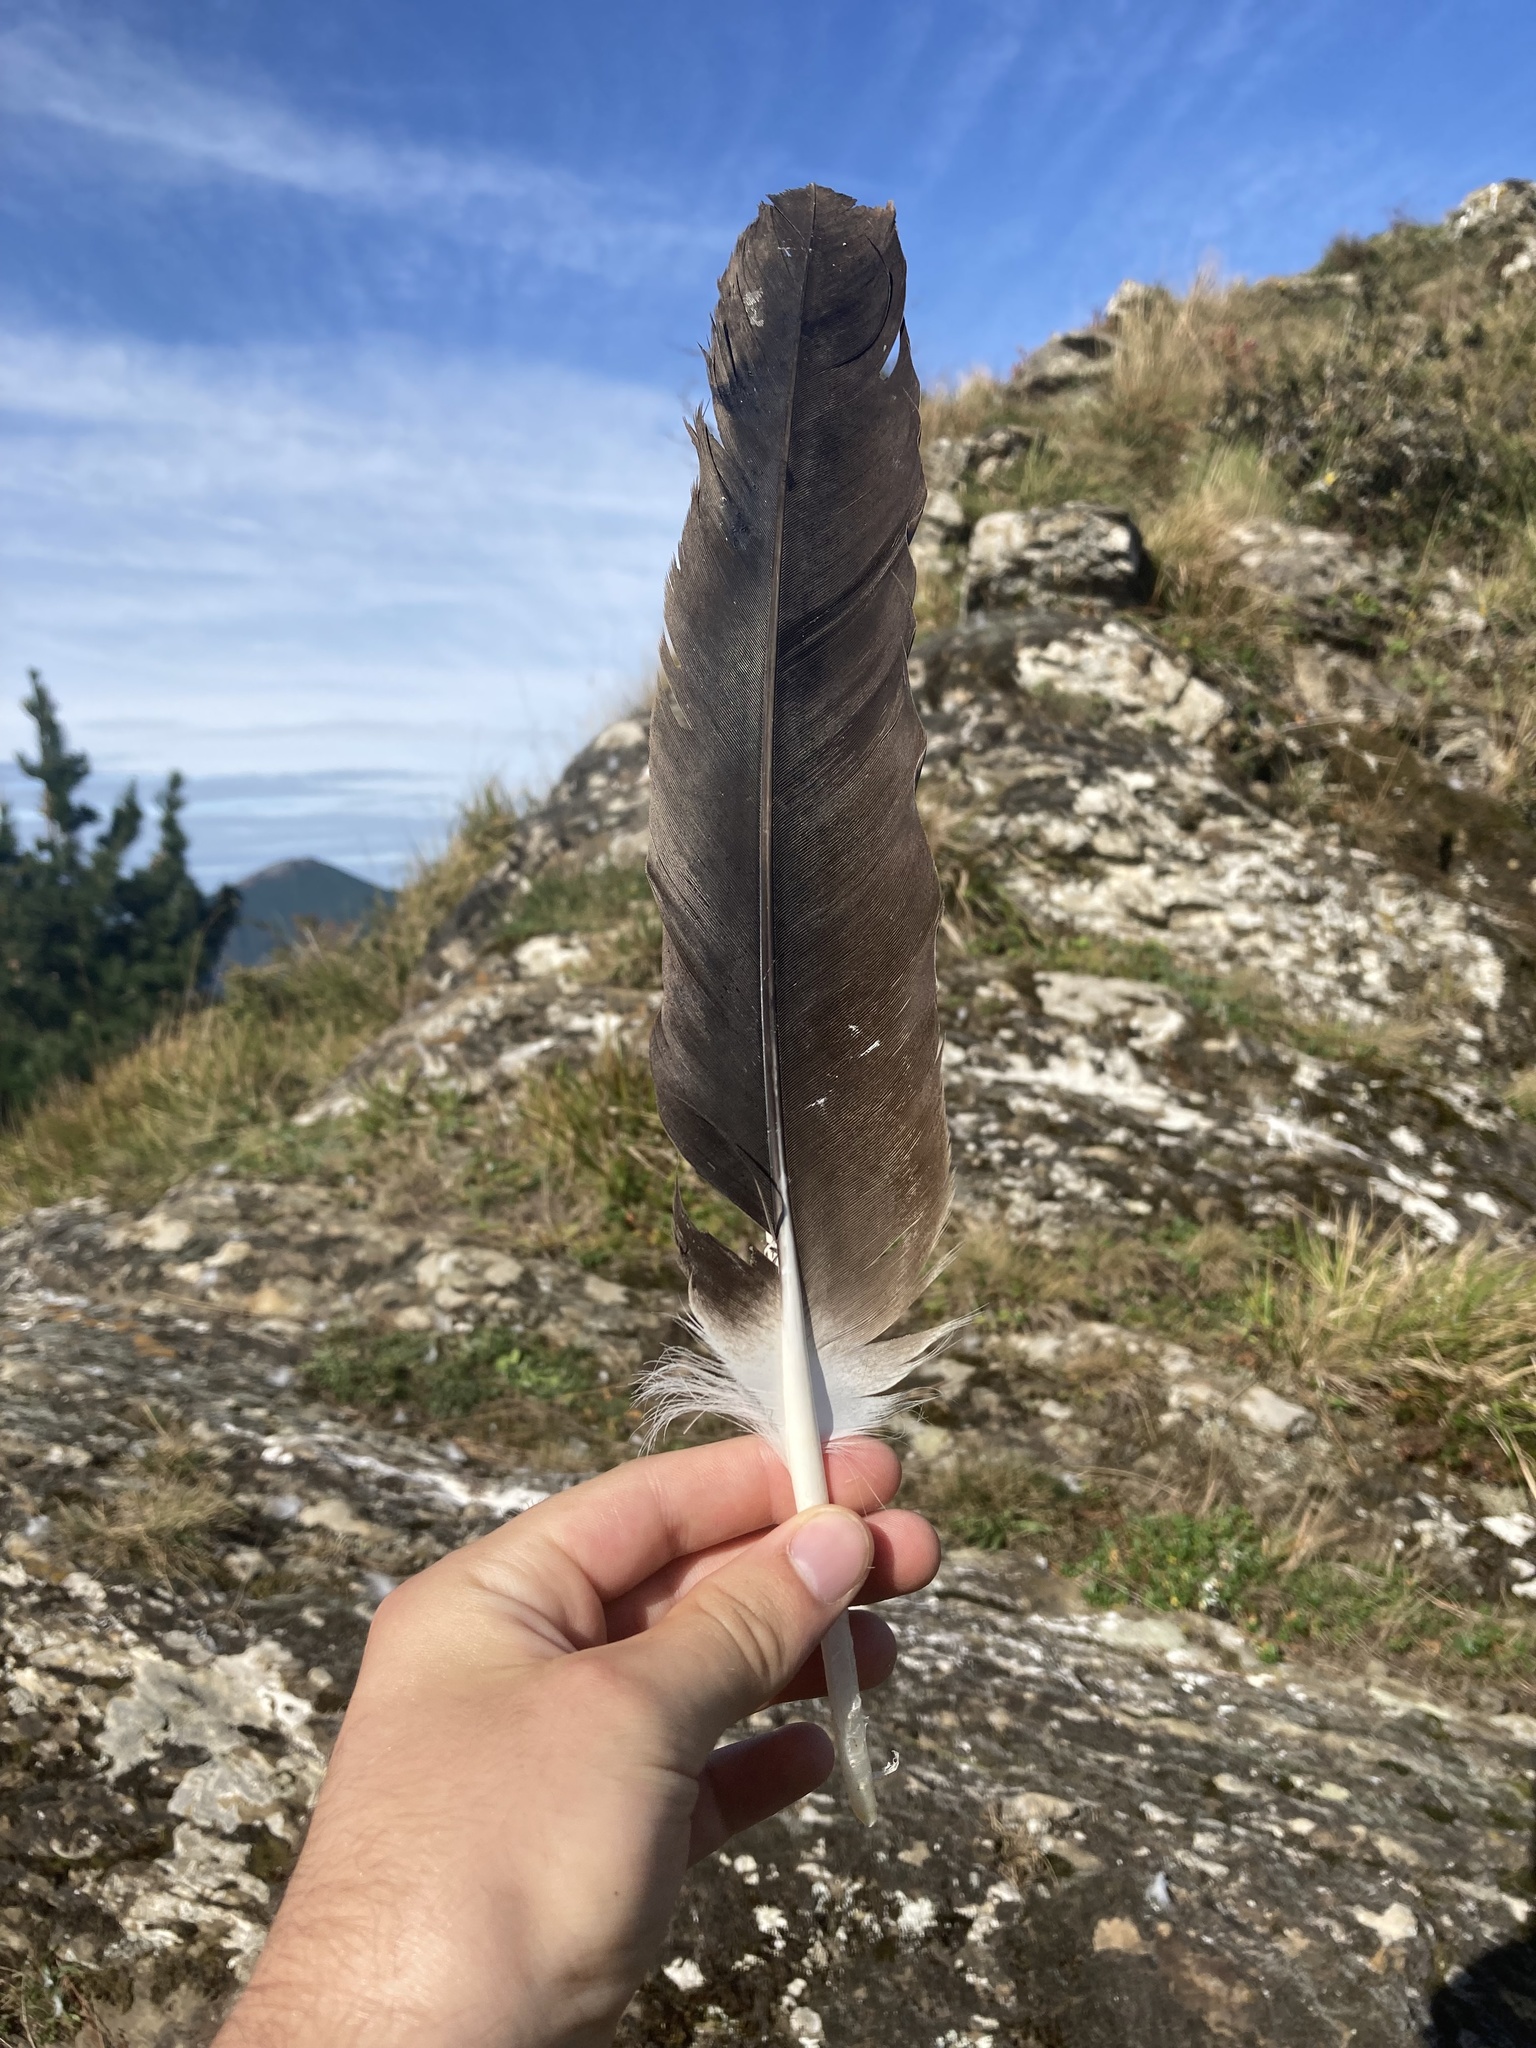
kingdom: Animalia
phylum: Chordata
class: Aves
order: Accipitriformes
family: Accipitridae
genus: Gyps
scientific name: Gyps fulvus
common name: Griffon vulture
